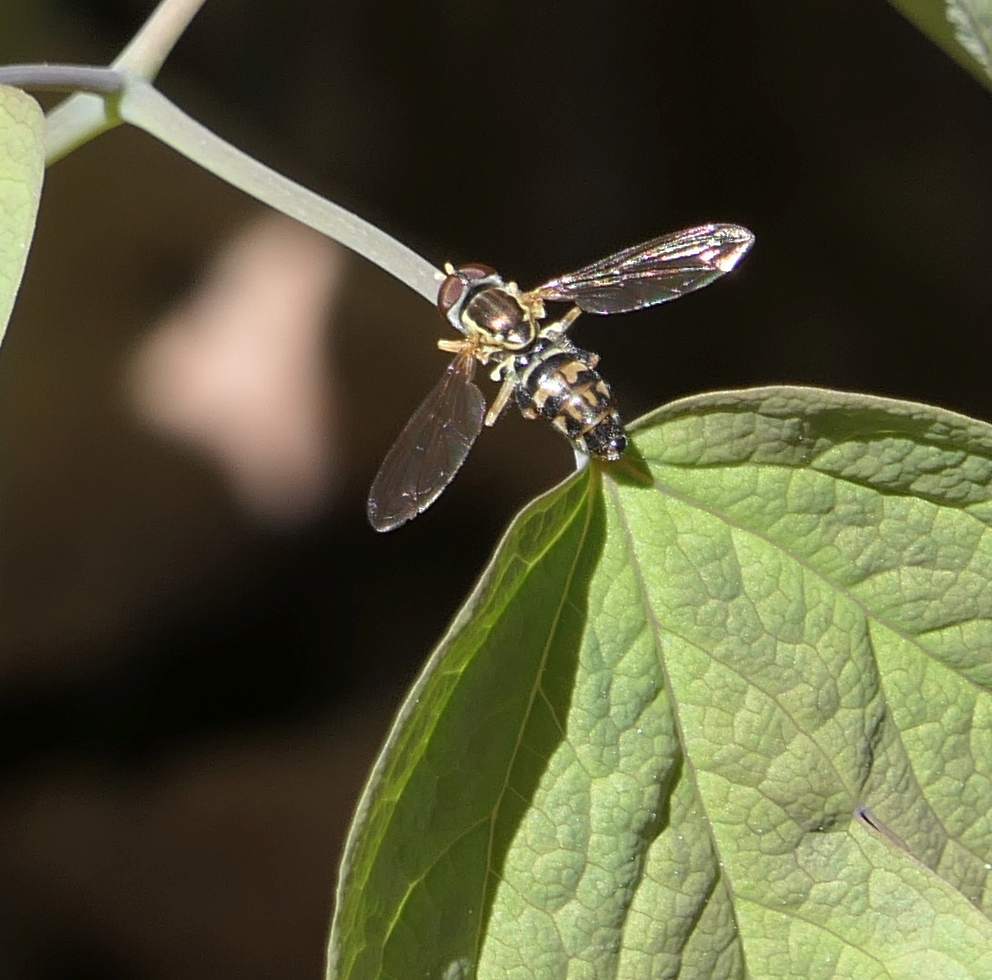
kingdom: Animalia
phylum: Arthropoda
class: Insecta
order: Diptera
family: Syrphidae
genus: Toxomerus
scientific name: Toxomerus geminatus
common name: Eastern calligrapher
